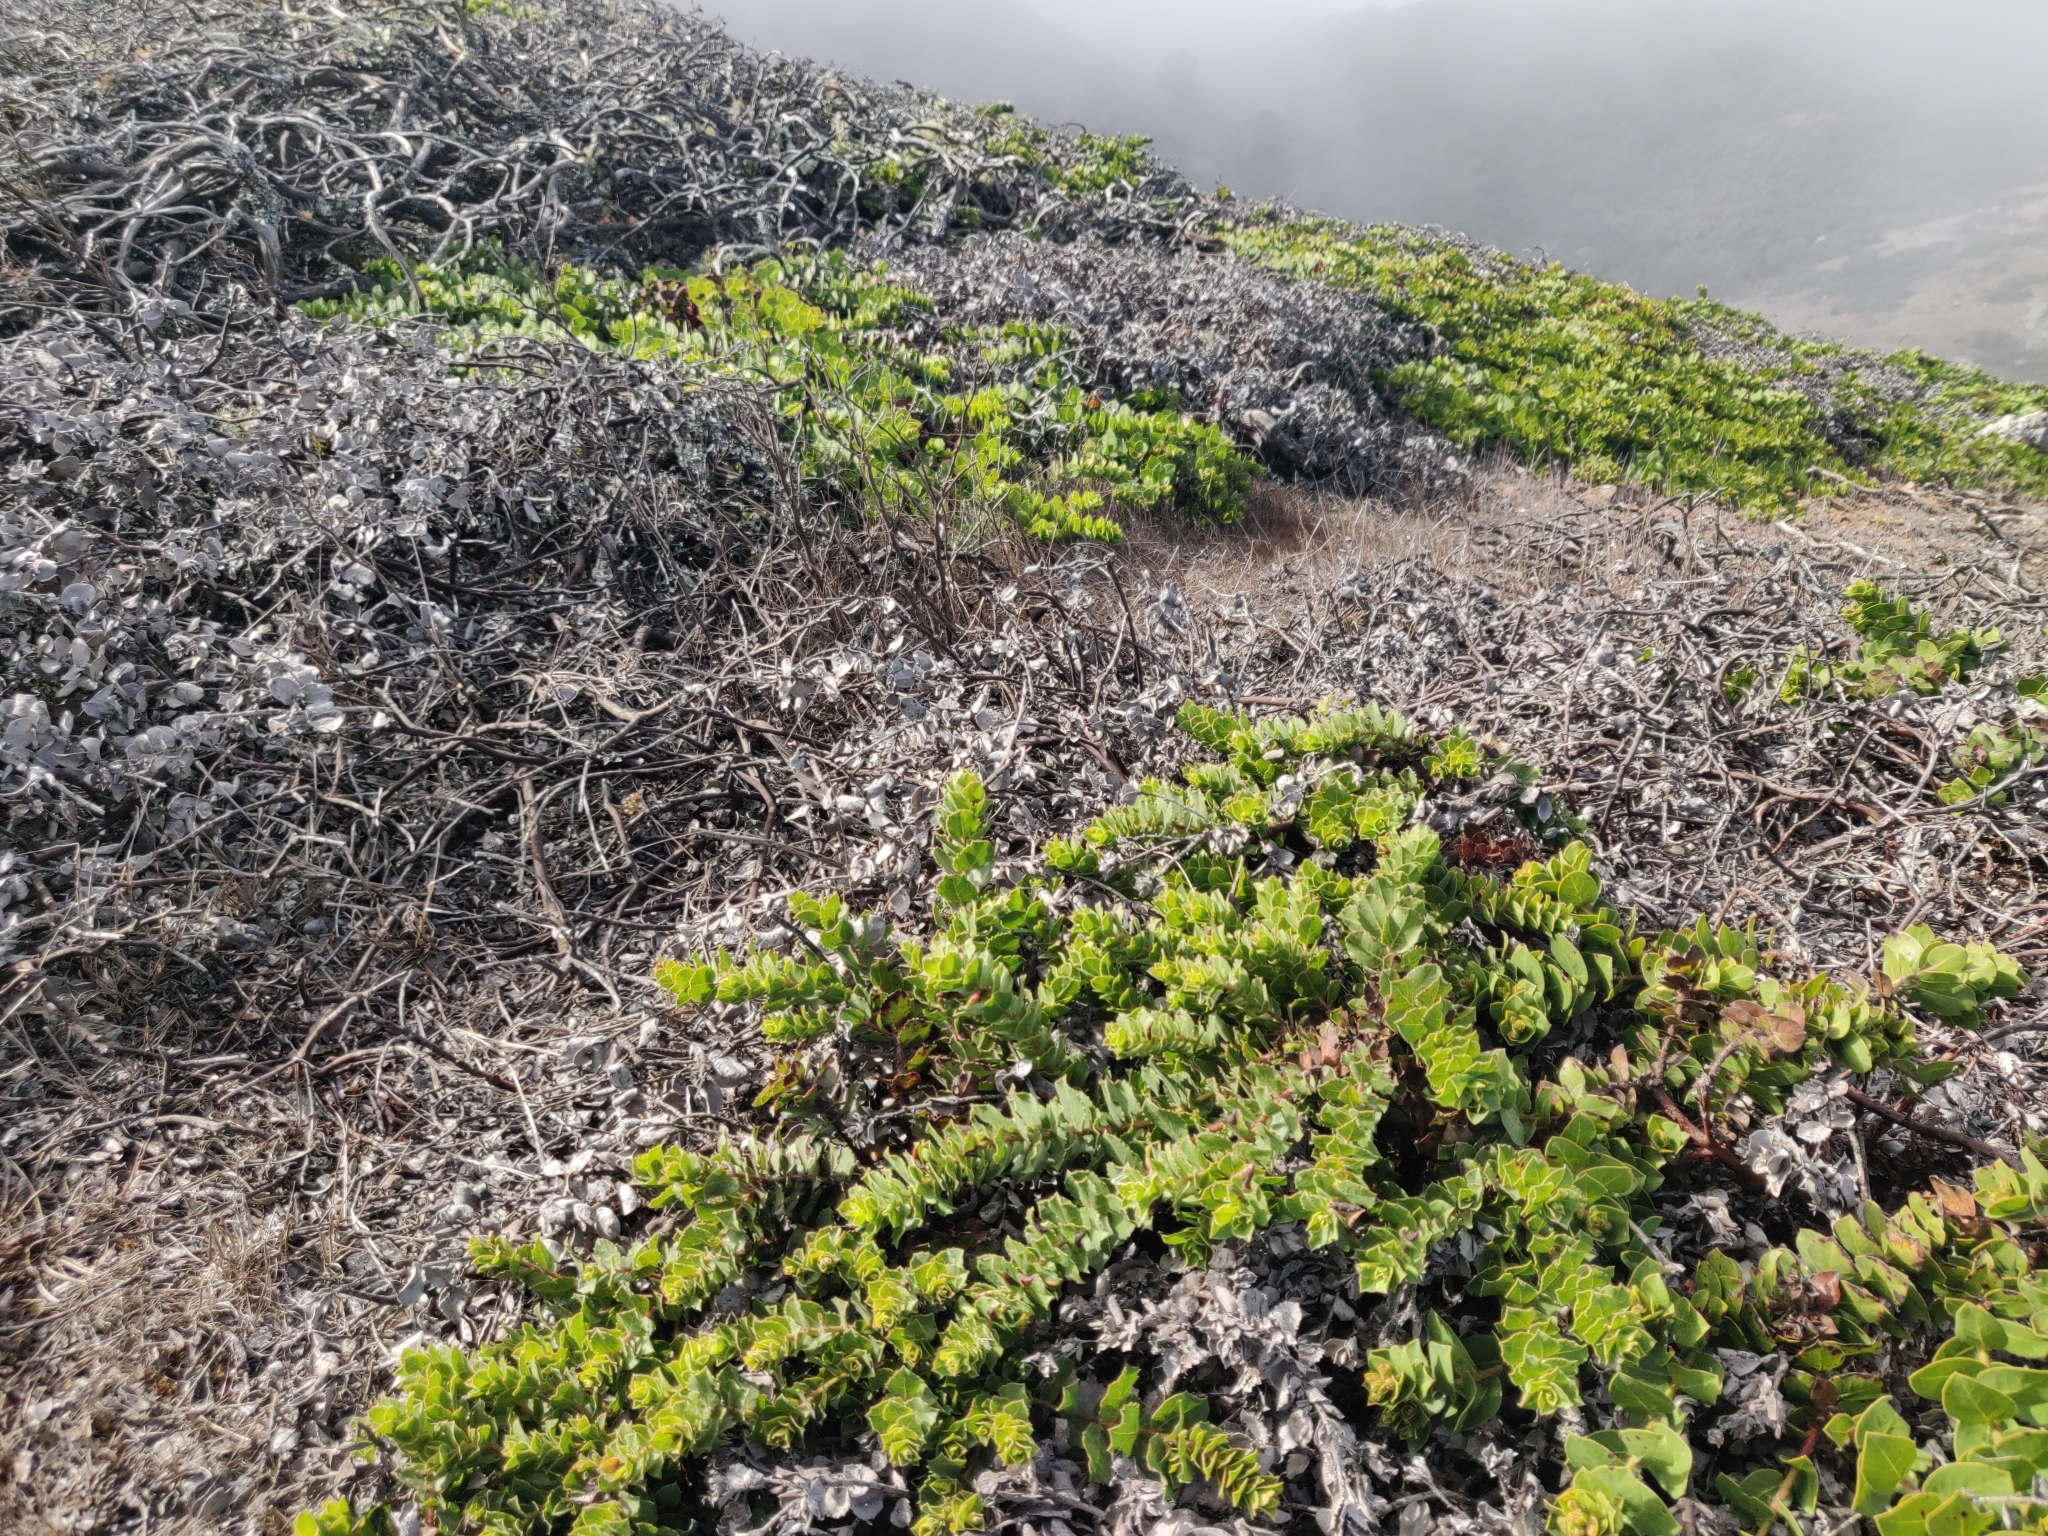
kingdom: Plantae
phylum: Tracheophyta
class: Magnoliopsida
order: Ericales
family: Ericaceae
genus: Arctostaphylos
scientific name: Arctostaphylos imbricata
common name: San bruno mountain manzanita
